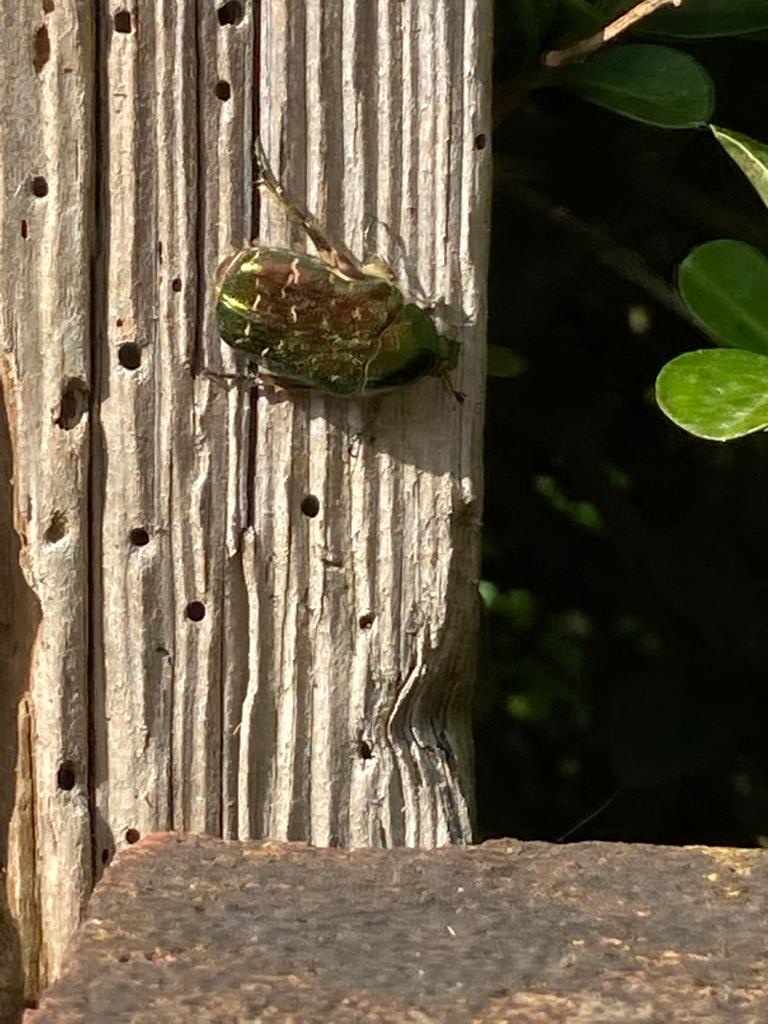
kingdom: Animalia
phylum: Arthropoda
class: Insecta
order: Coleoptera
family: Scarabaeidae
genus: Cetonia
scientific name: Cetonia aurata
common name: Rose chafer
